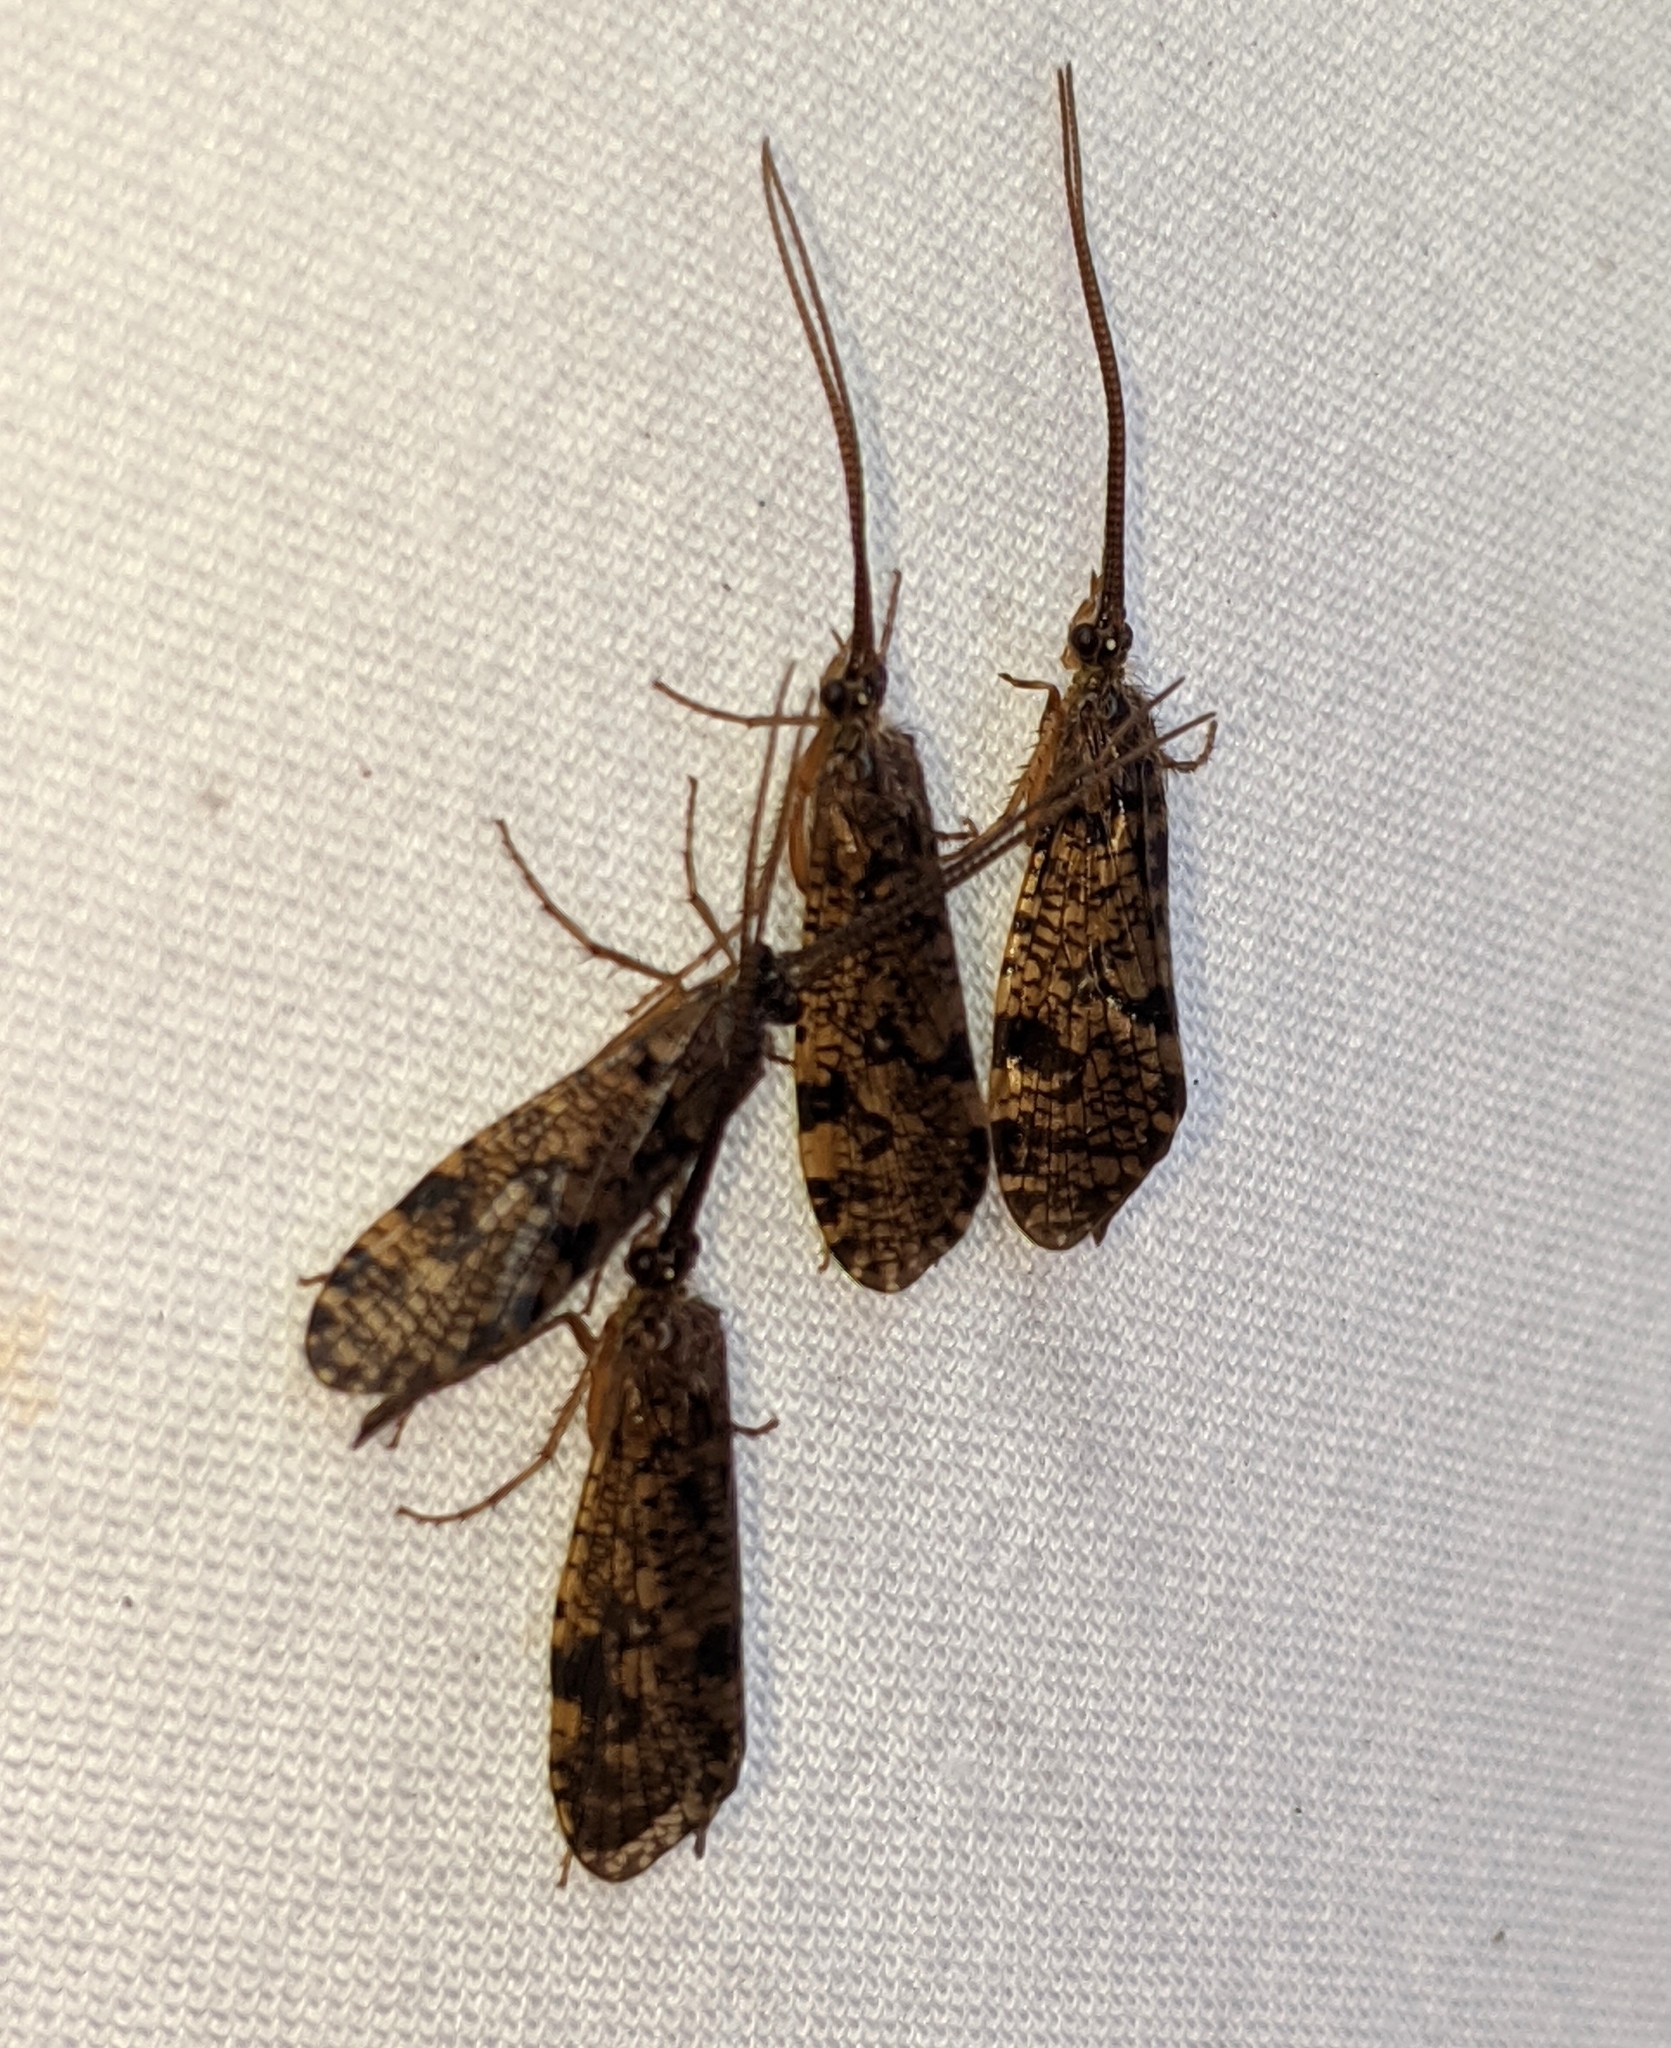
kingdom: Animalia
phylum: Arthropoda
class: Insecta
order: Trichoptera
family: Phryganeidae
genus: Banksiola
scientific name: Banksiola crotchi
